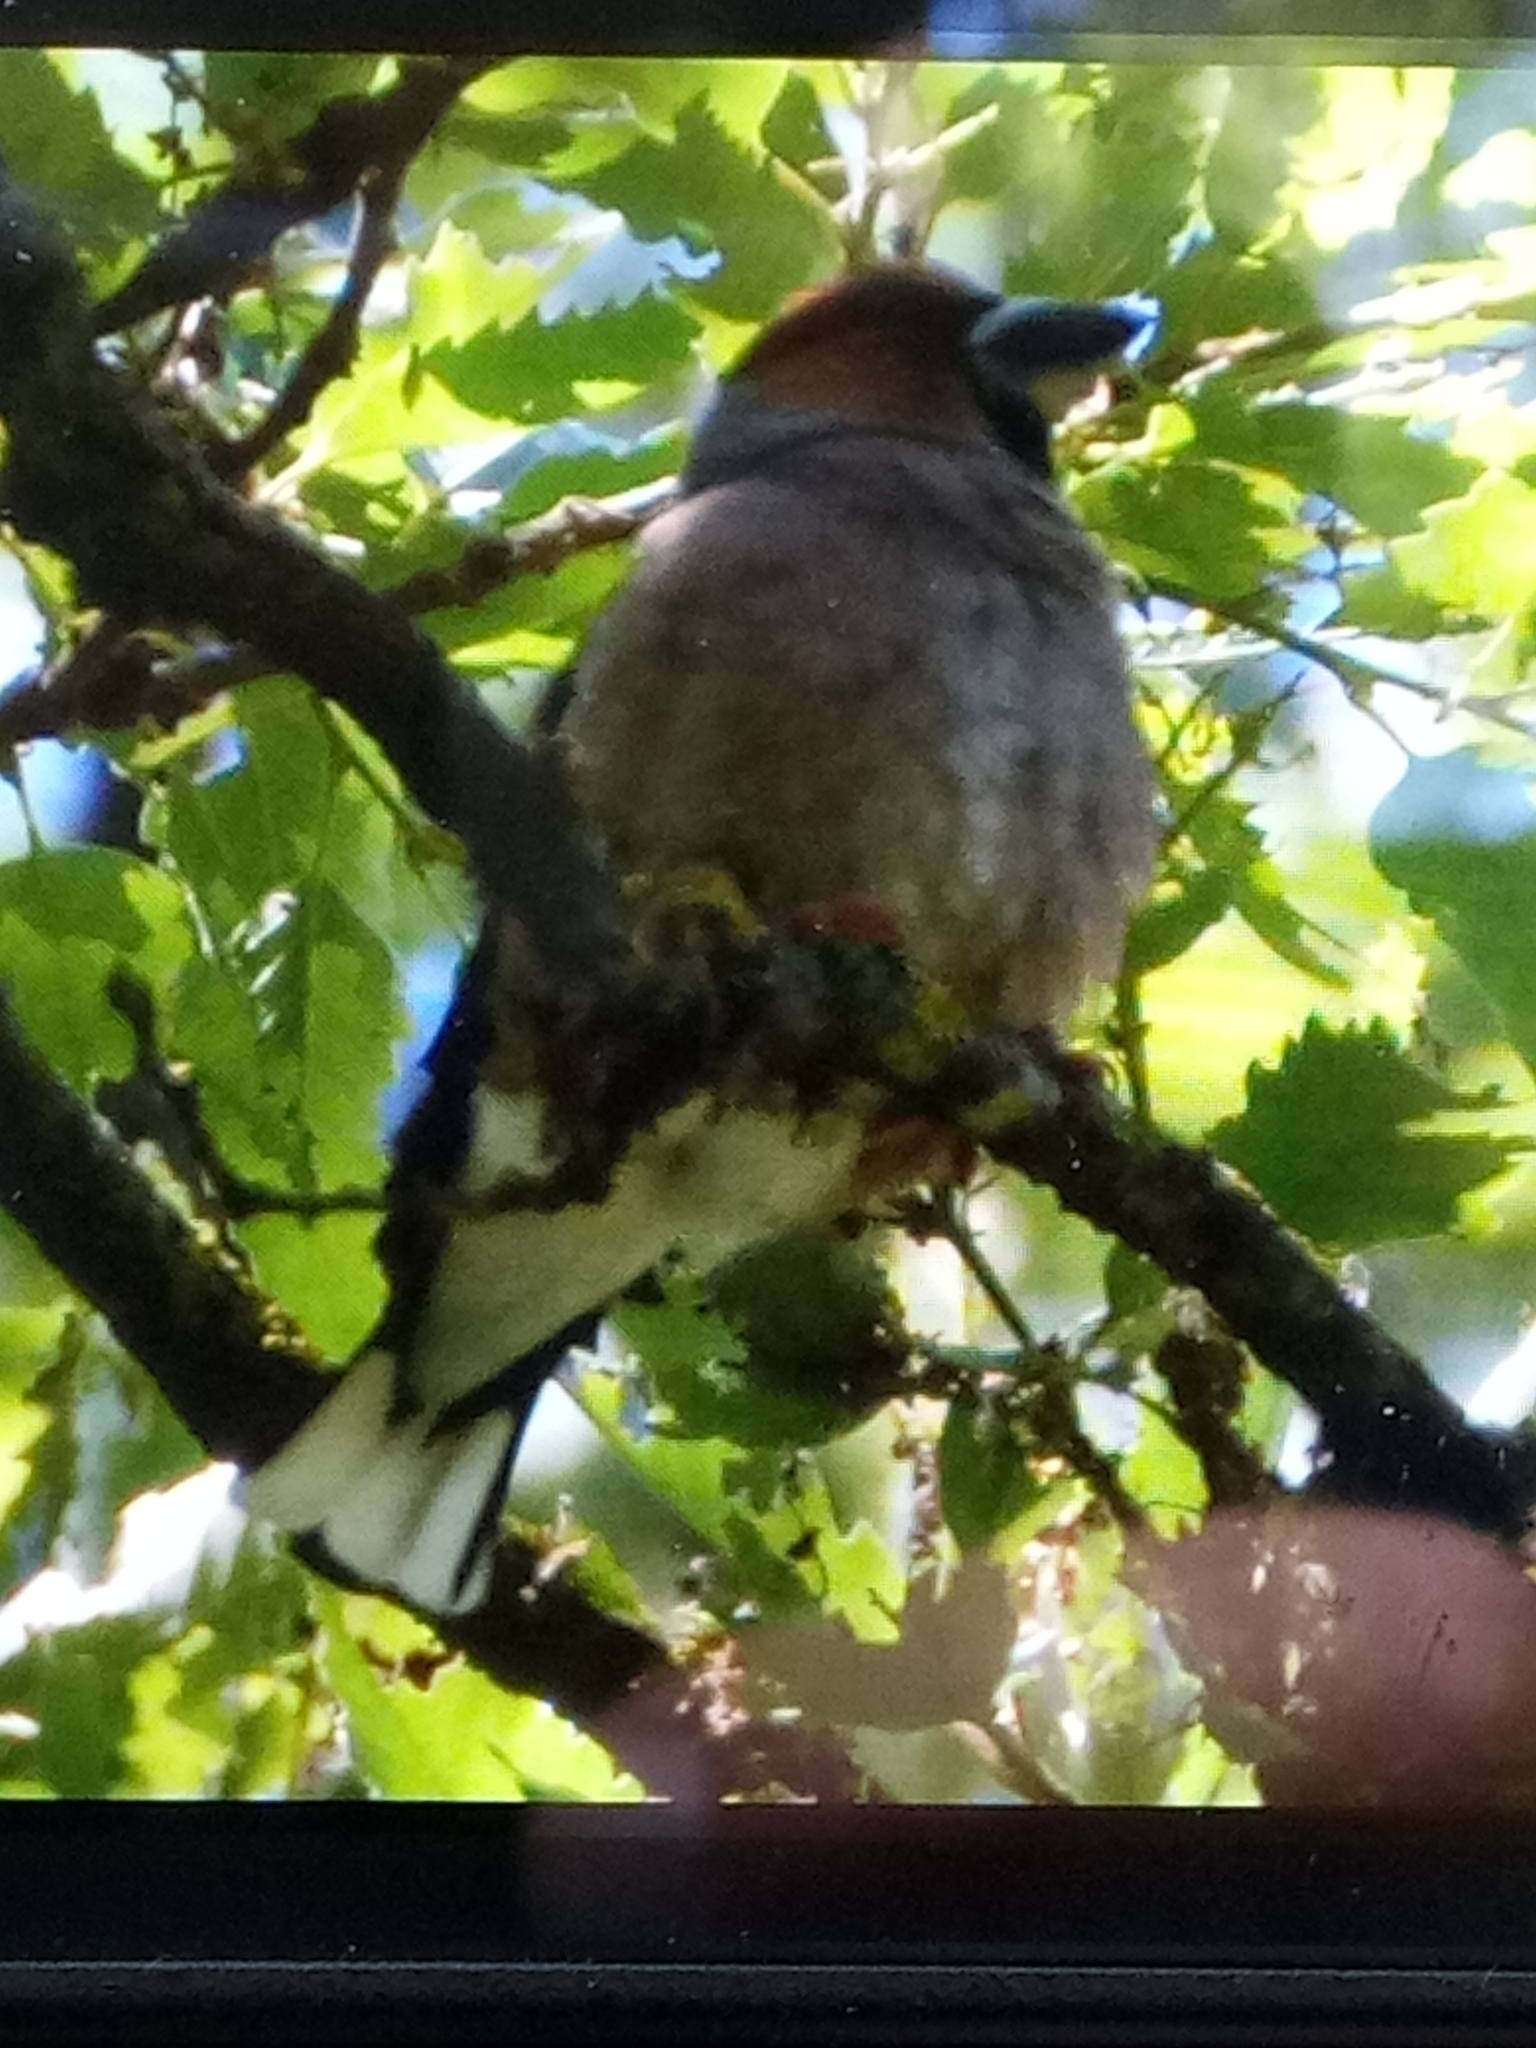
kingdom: Animalia
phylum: Chordata
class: Aves
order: Passeriformes
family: Fringillidae
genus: Coccothraustes
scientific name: Coccothraustes coccothraustes
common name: Hawfinch
